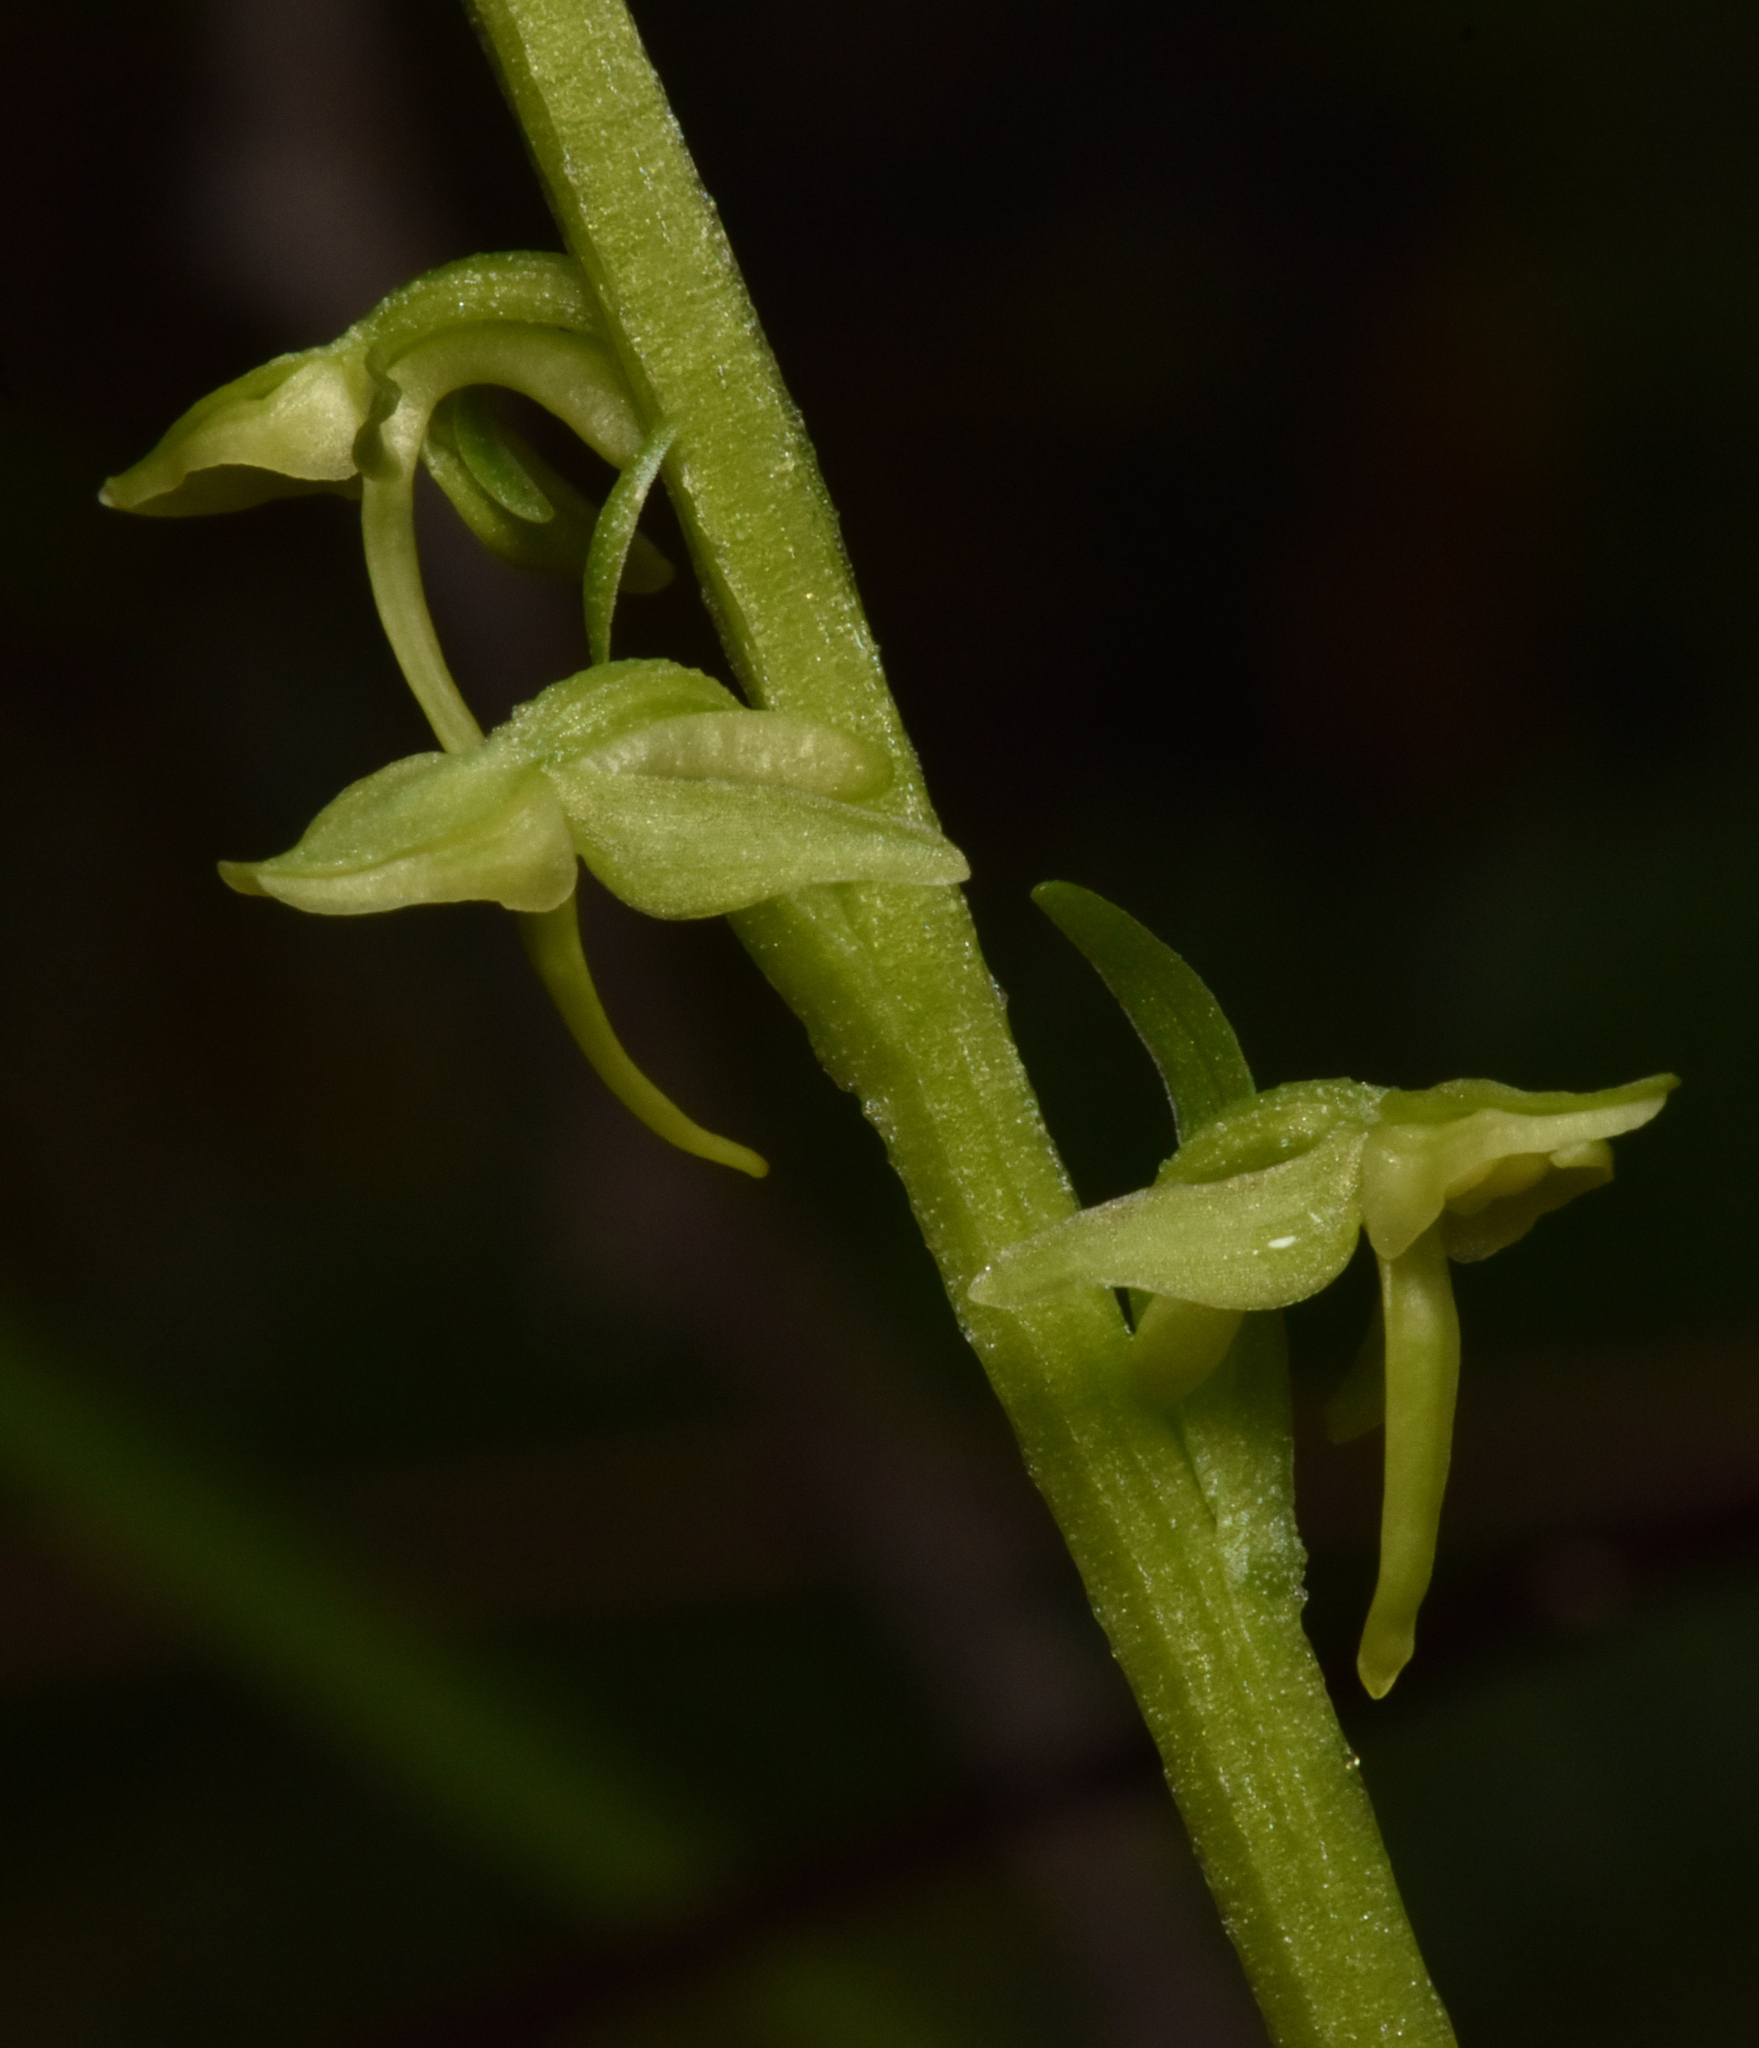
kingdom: Plantae
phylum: Tracheophyta
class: Liliopsida
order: Asparagales
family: Orchidaceae
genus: Platanthera
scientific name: Platanthera stricta
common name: Slender bog orchid
